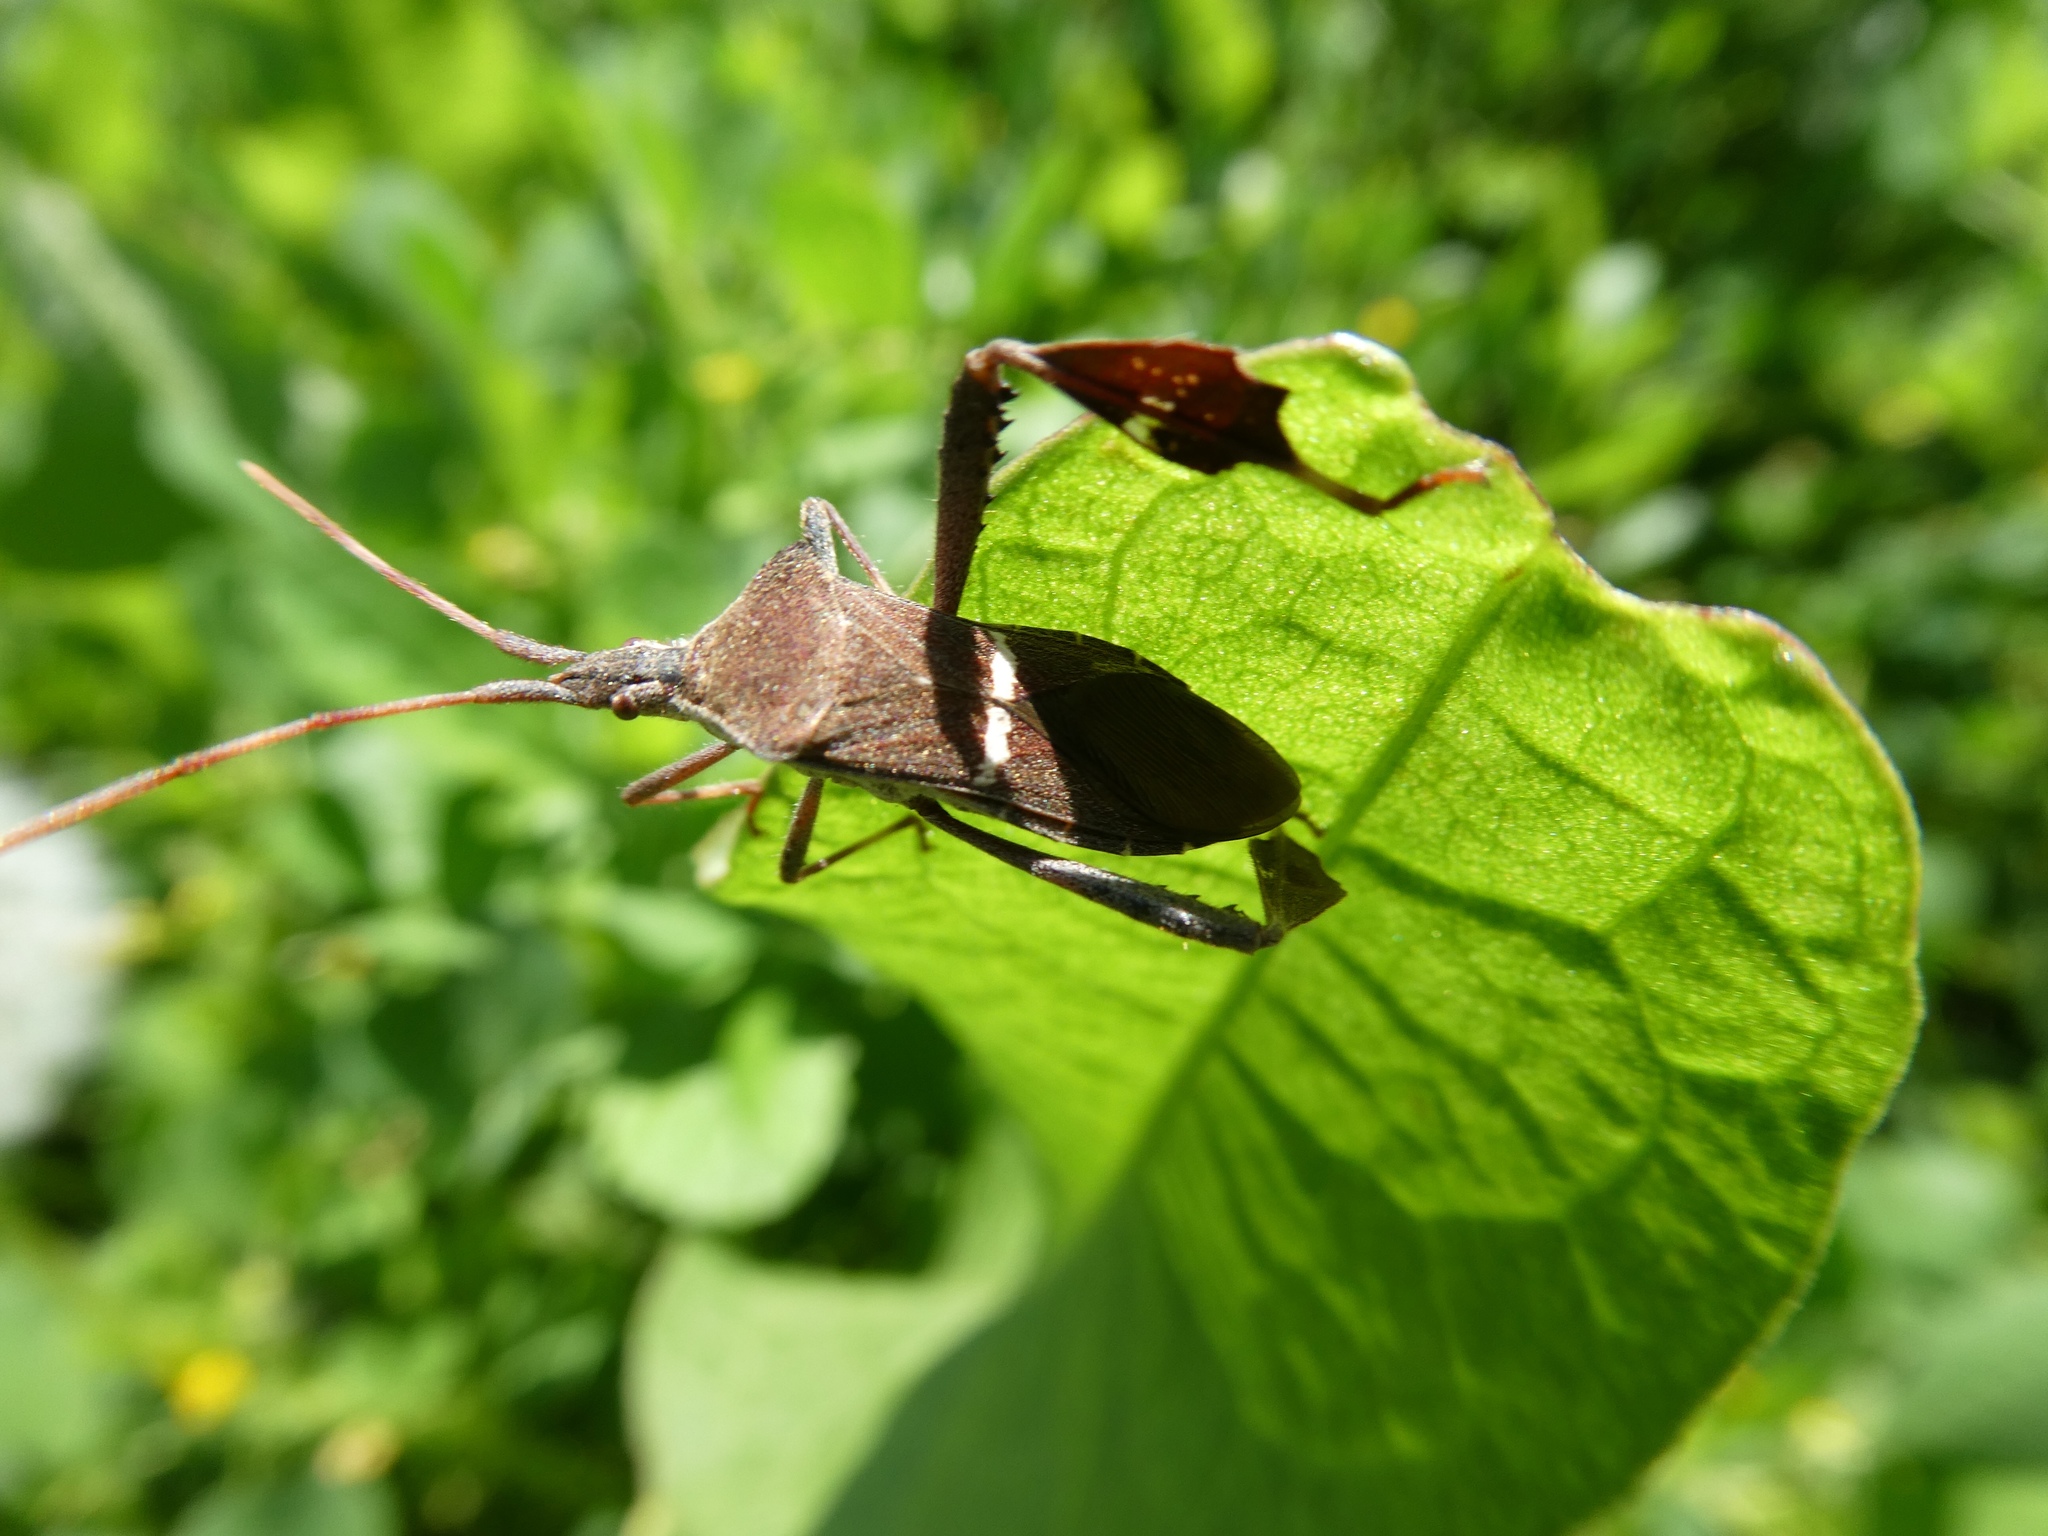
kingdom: Animalia
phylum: Arthropoda
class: Insecta
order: Hemiptera
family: Coreidae
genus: Leptoglossus
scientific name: Leptoglossus phyllopus
